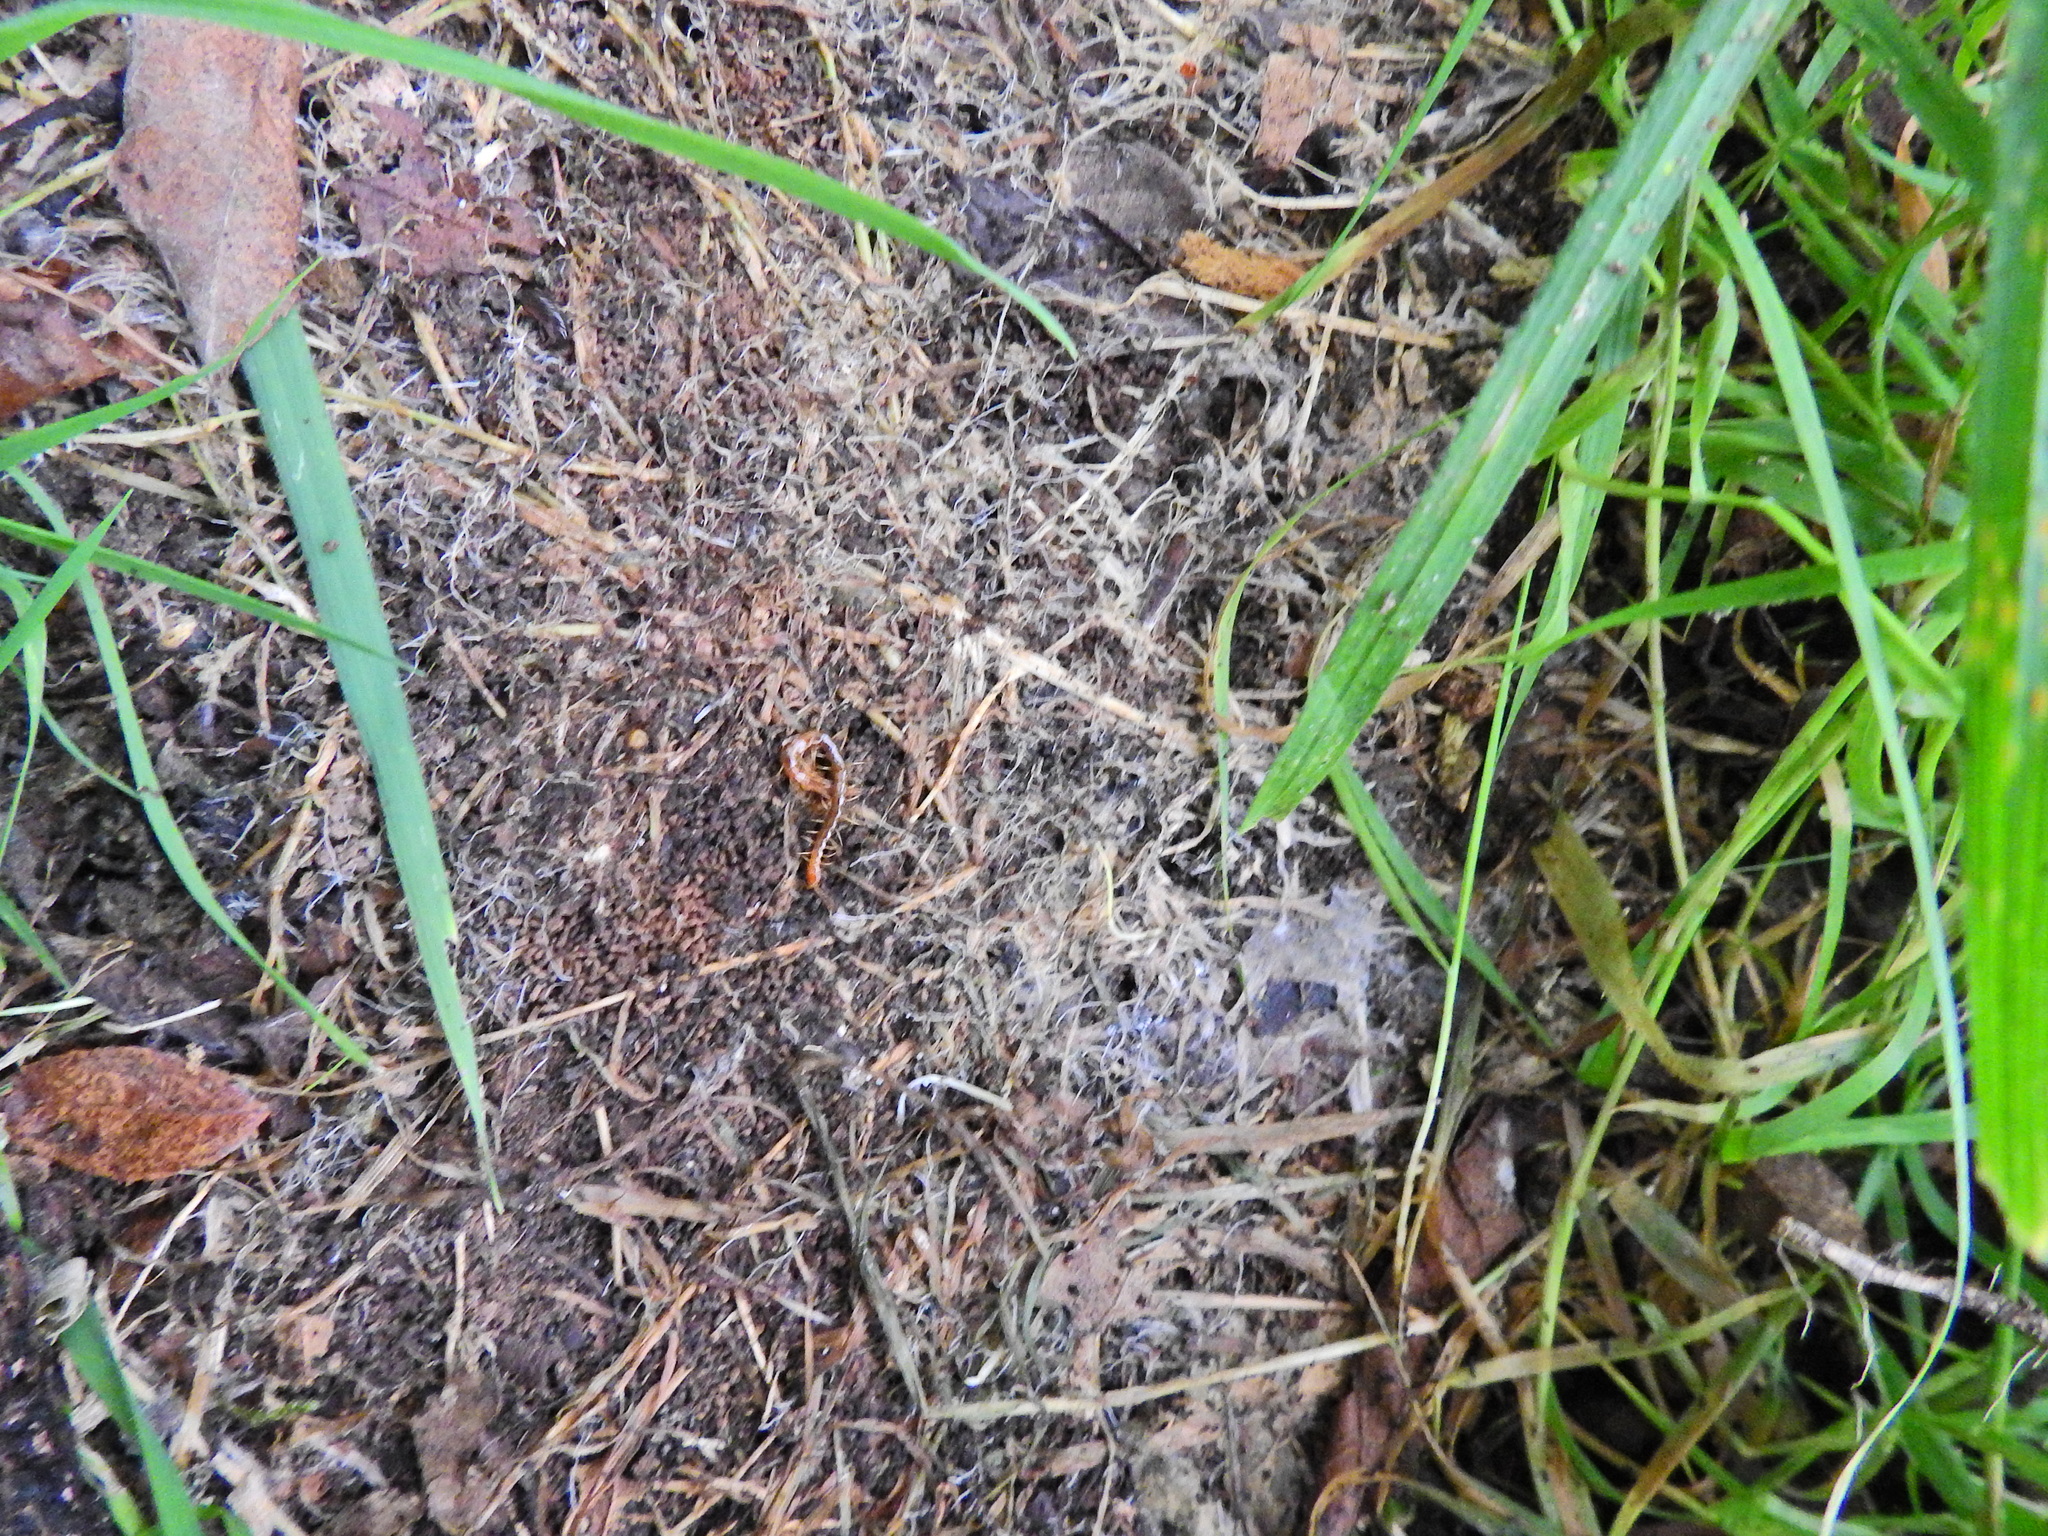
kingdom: Animalia
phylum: Arthropoda
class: Chilopoda
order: Scolopendromorpha
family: Cryptopidae
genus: Cryptops
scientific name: Cryptops
